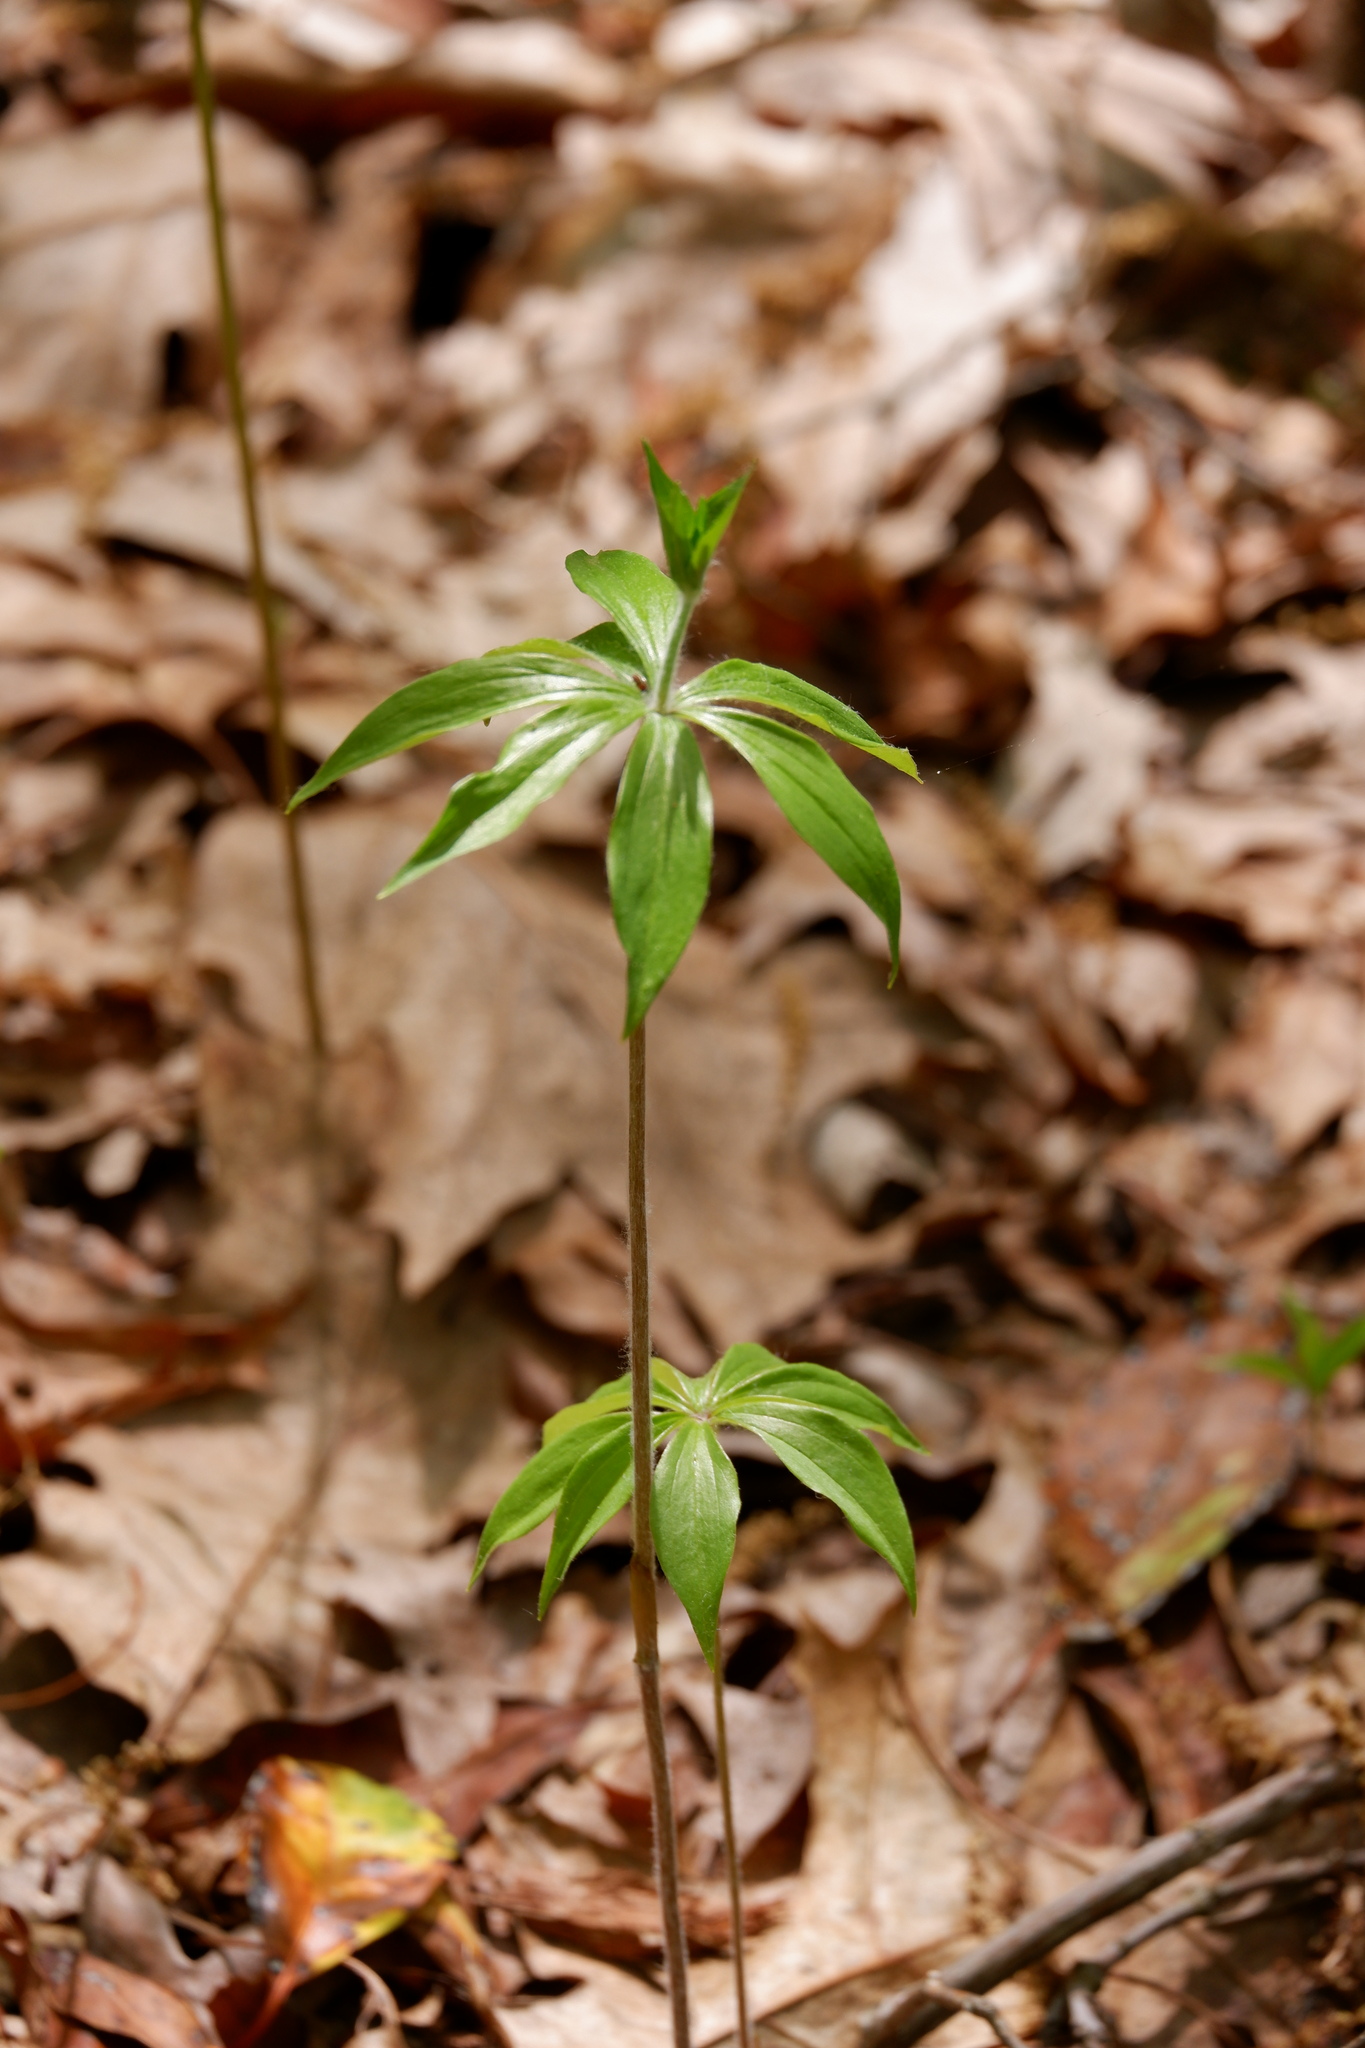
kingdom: Plantae
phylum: Tracheophyta
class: Liliopsida
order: Liliales
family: Liliaceae
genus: Medeola
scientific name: Medeola virginiana
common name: Indian cucumber-root
